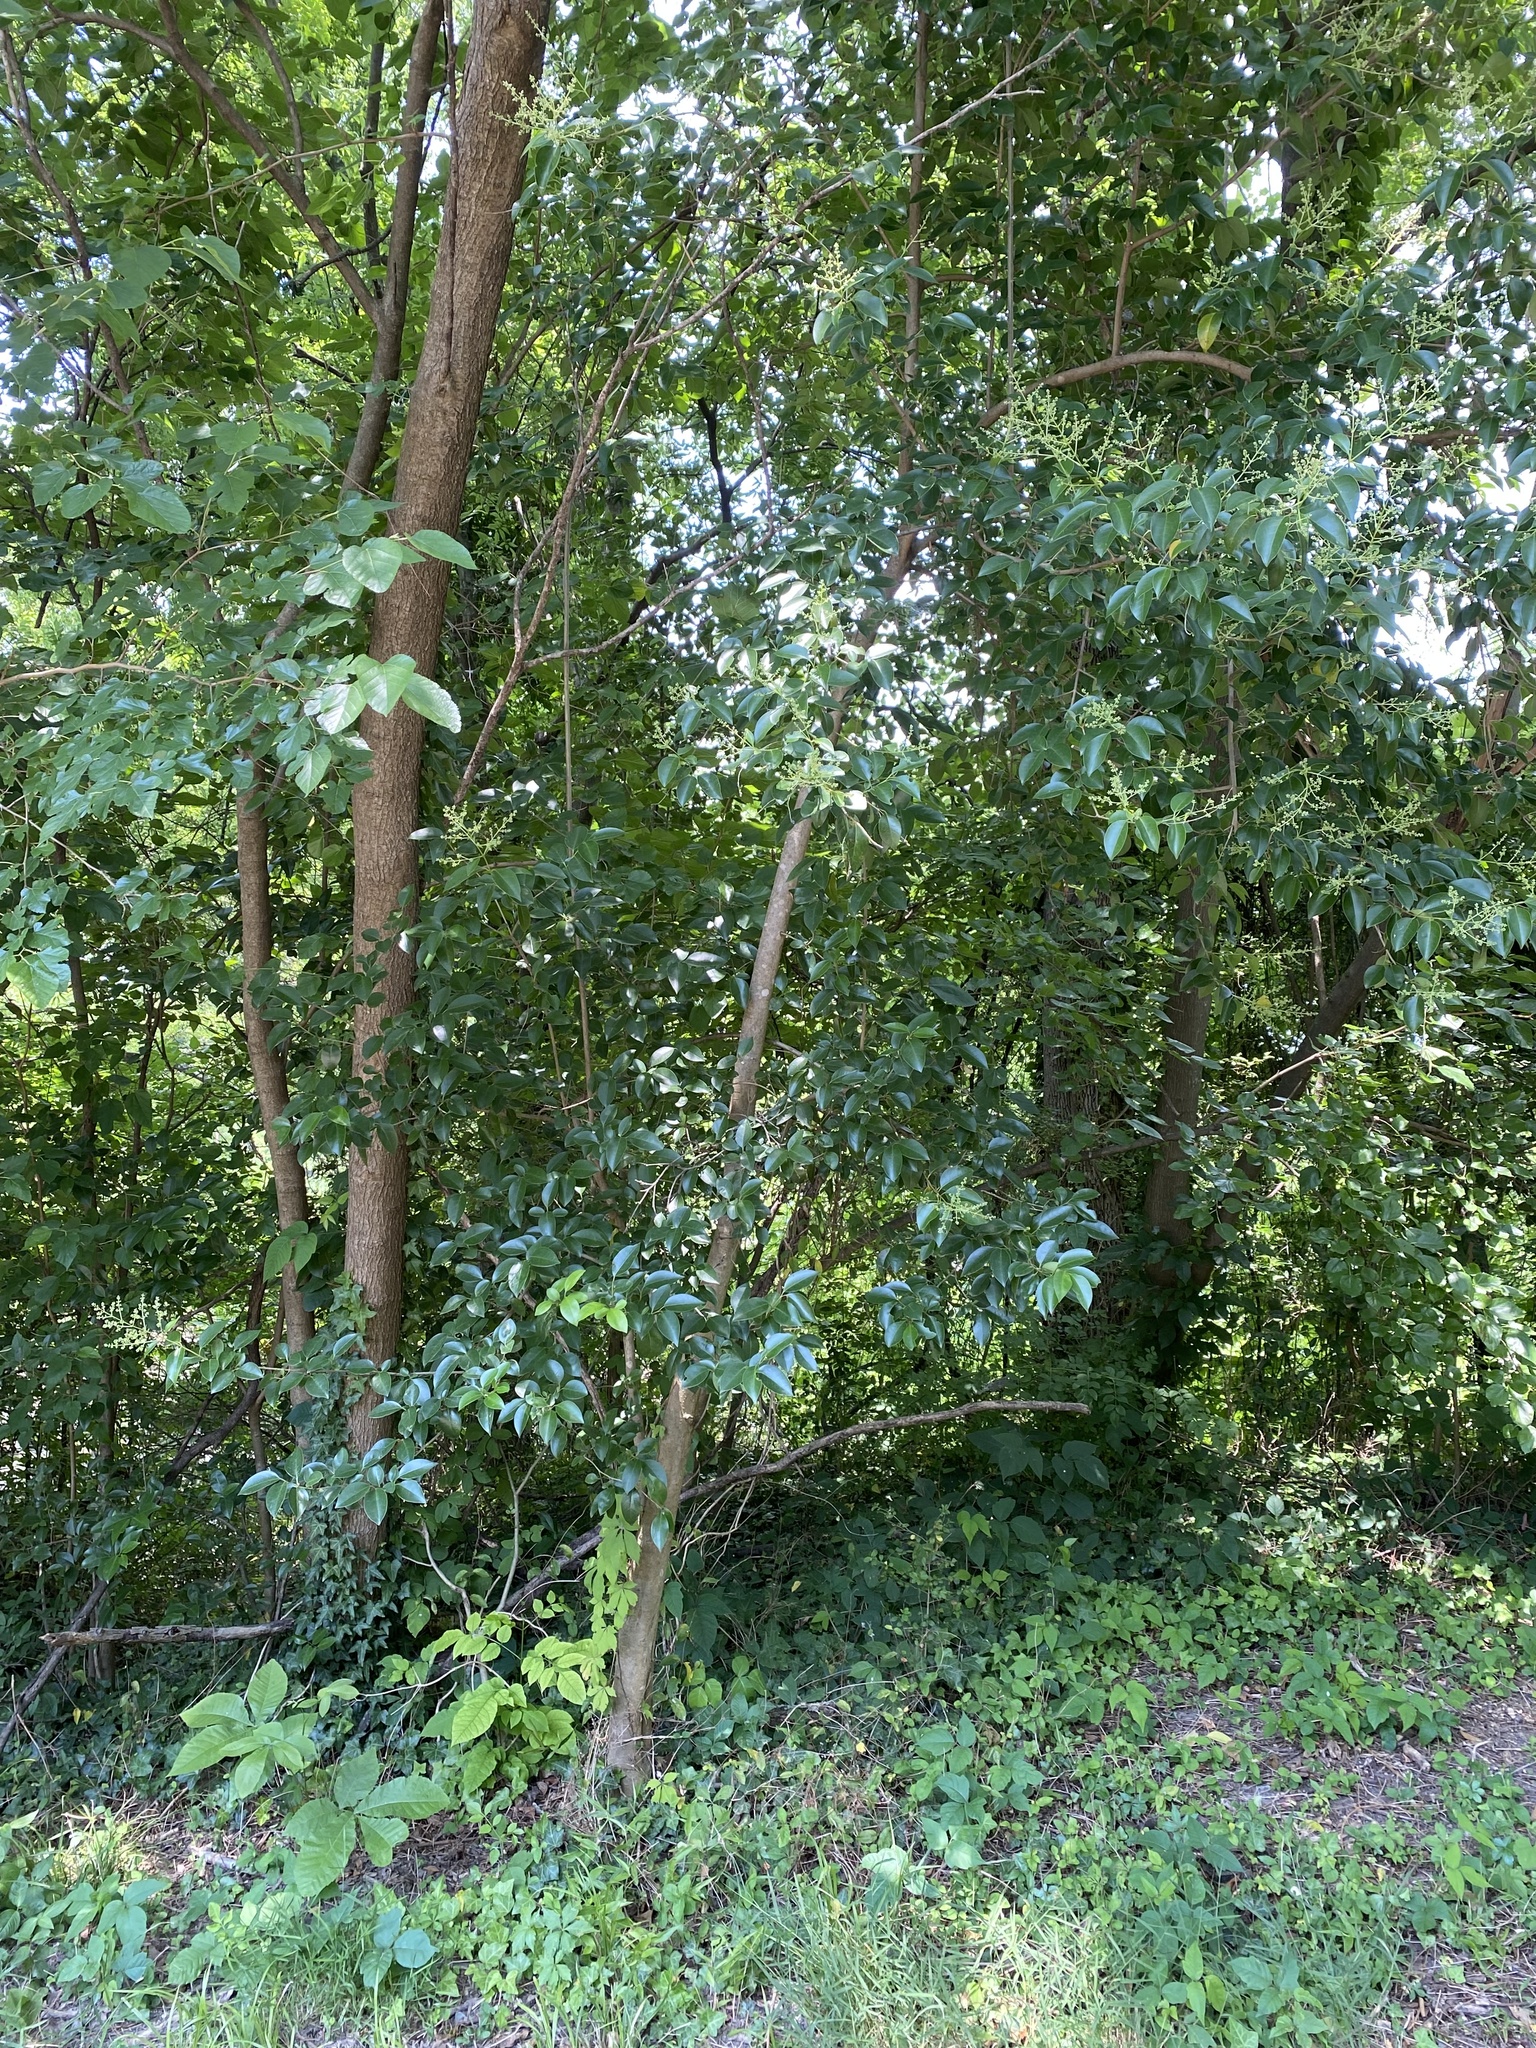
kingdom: Plantae
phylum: Tracheophyta
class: Magnoliopsida
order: Lamiales
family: Oleaceae
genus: Ligustrum
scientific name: Ligustrum lucidum
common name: Glossy privet
